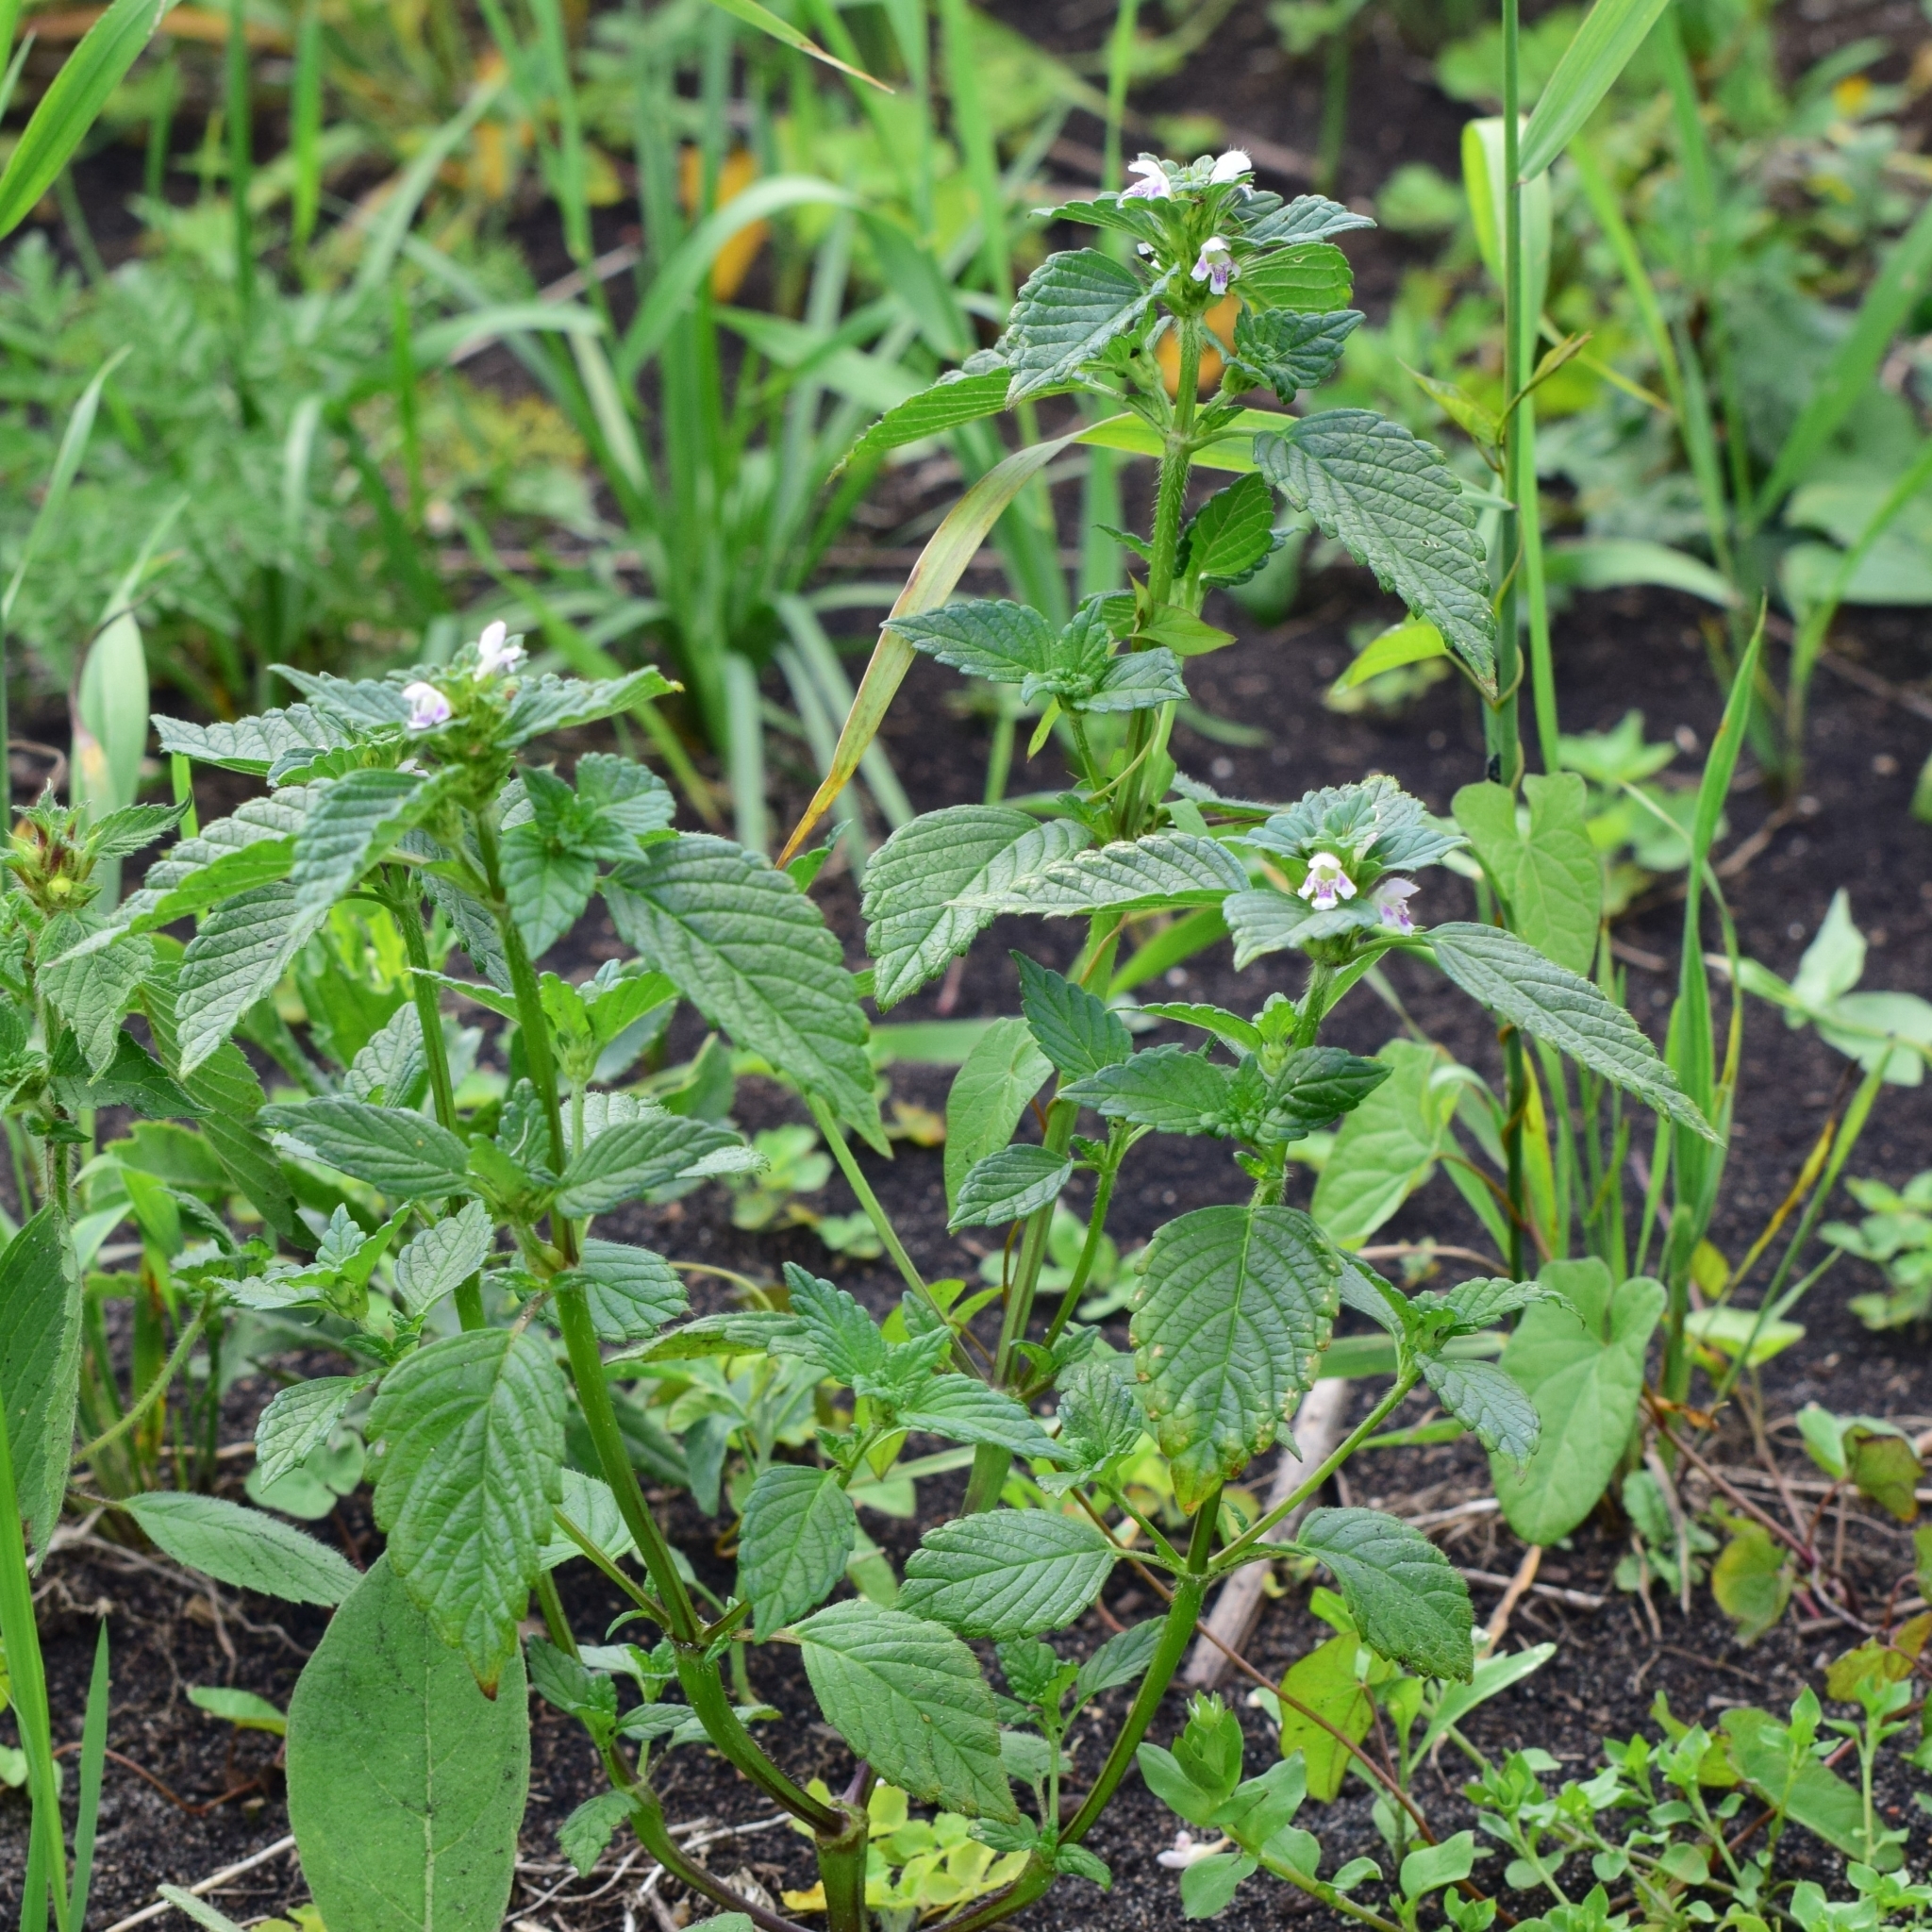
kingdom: Plantae
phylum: Tracheophyta
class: Magnoliopsida
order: Lamiales
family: Lamiaceae
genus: Galeopsis
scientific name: Galeopsis tetrahit
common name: Common hemp-nettle
